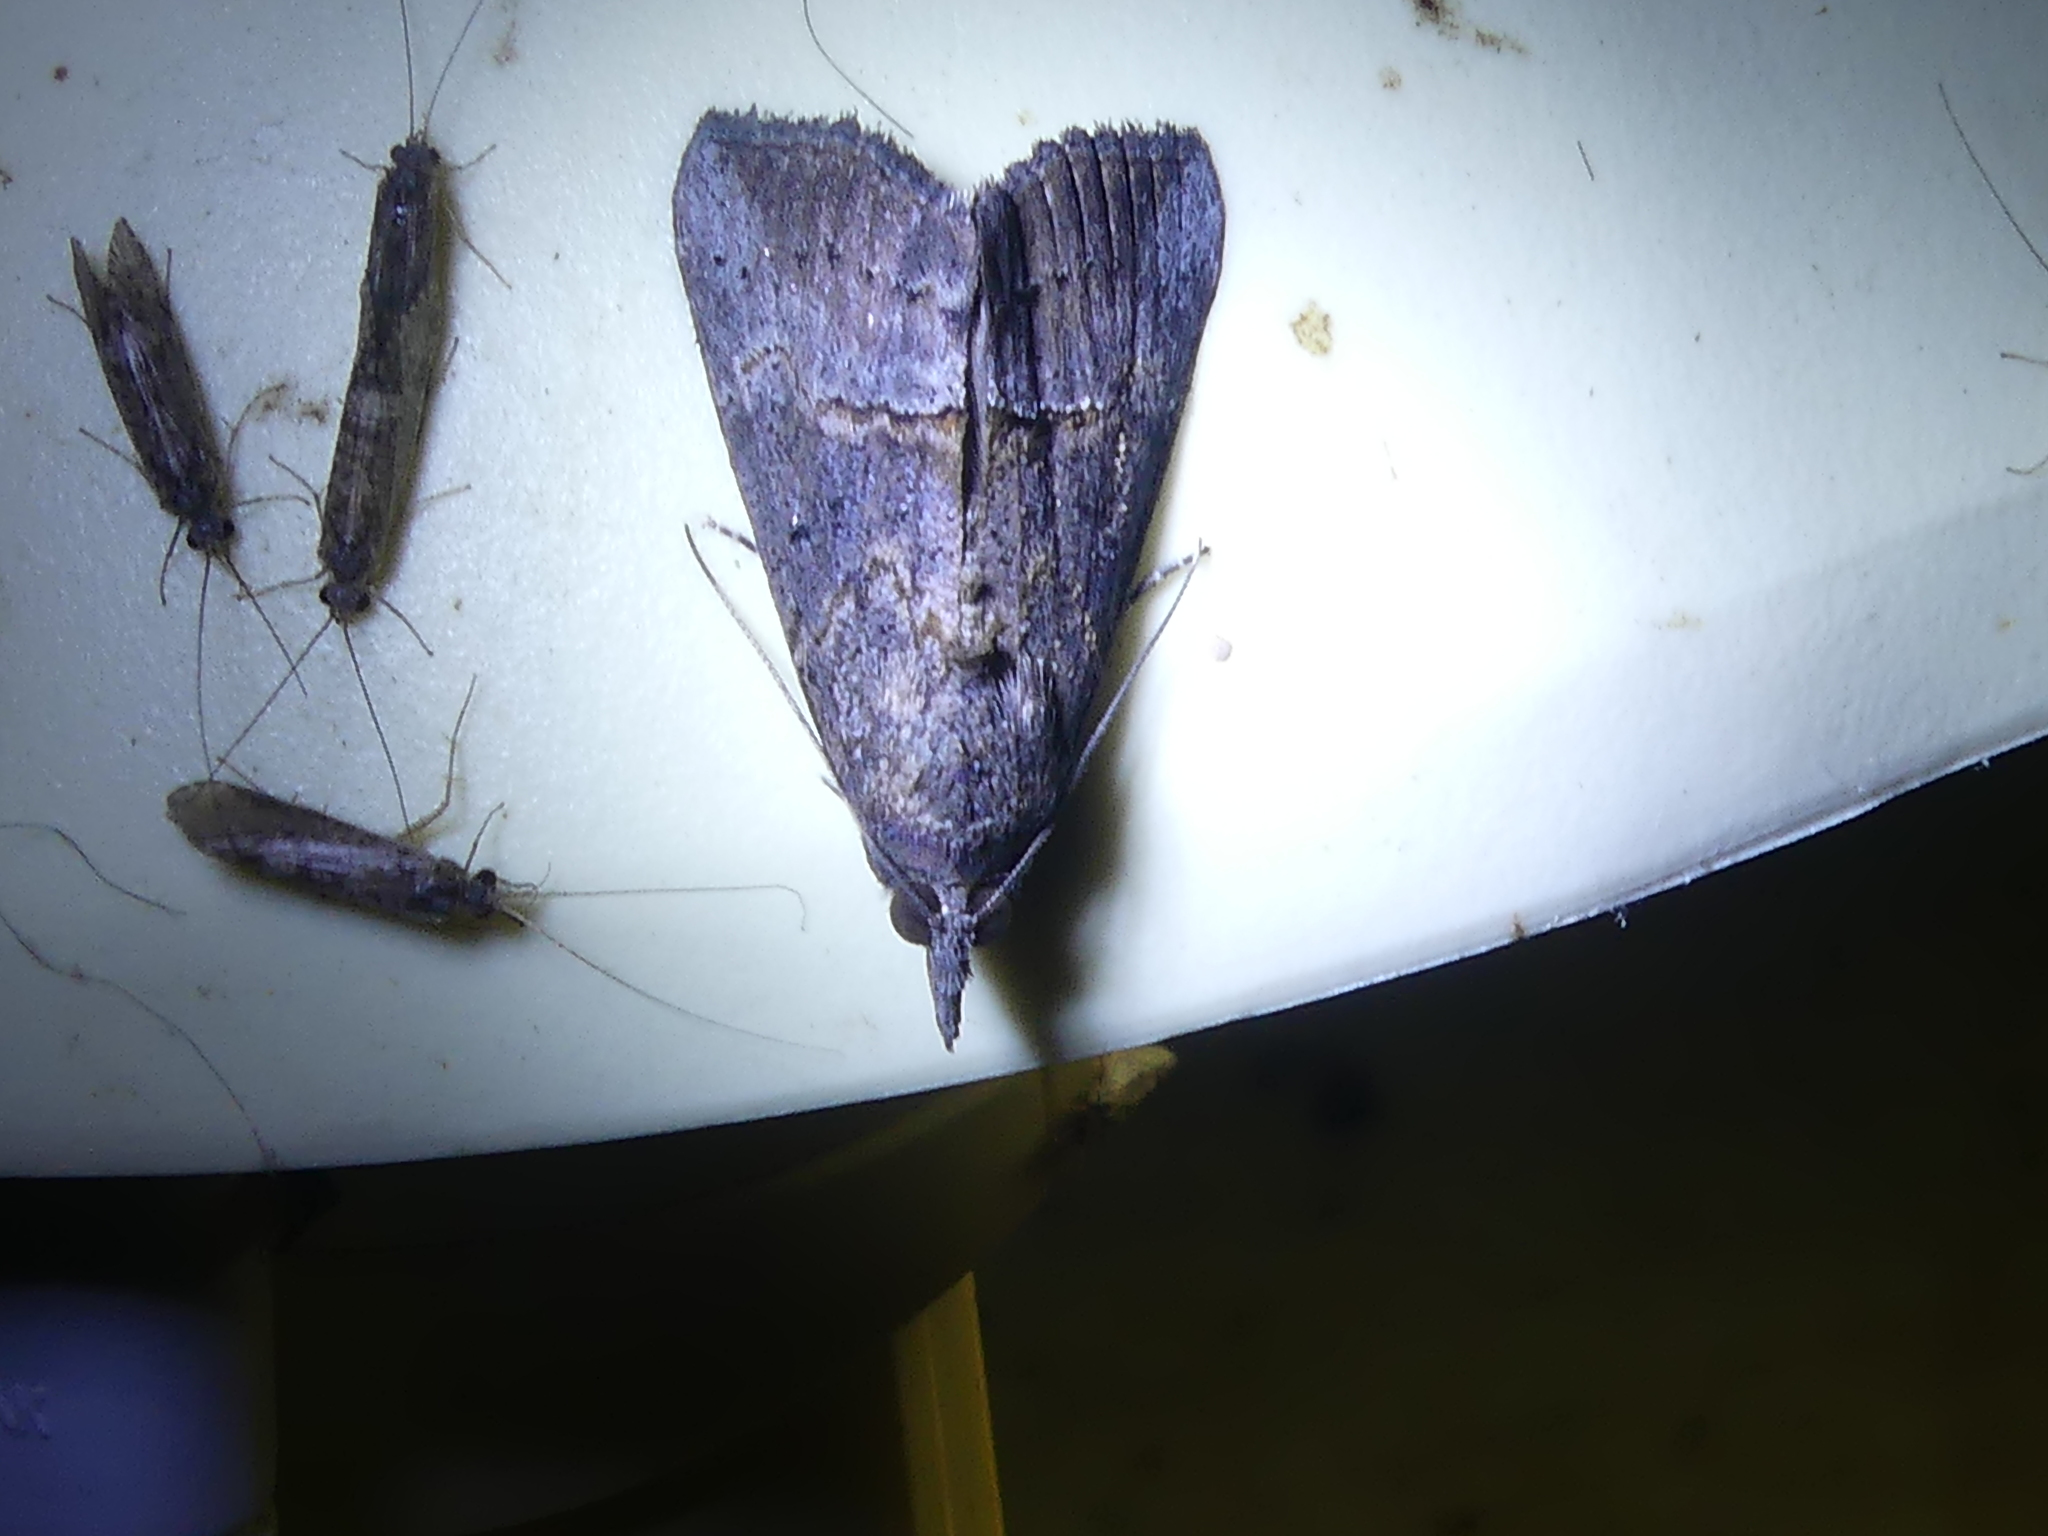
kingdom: Animalia
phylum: Arthropoda
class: Insecta
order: Lepidoptera
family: Erebidae
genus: Hypena
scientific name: Hypena scabra
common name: Green cloverworm
